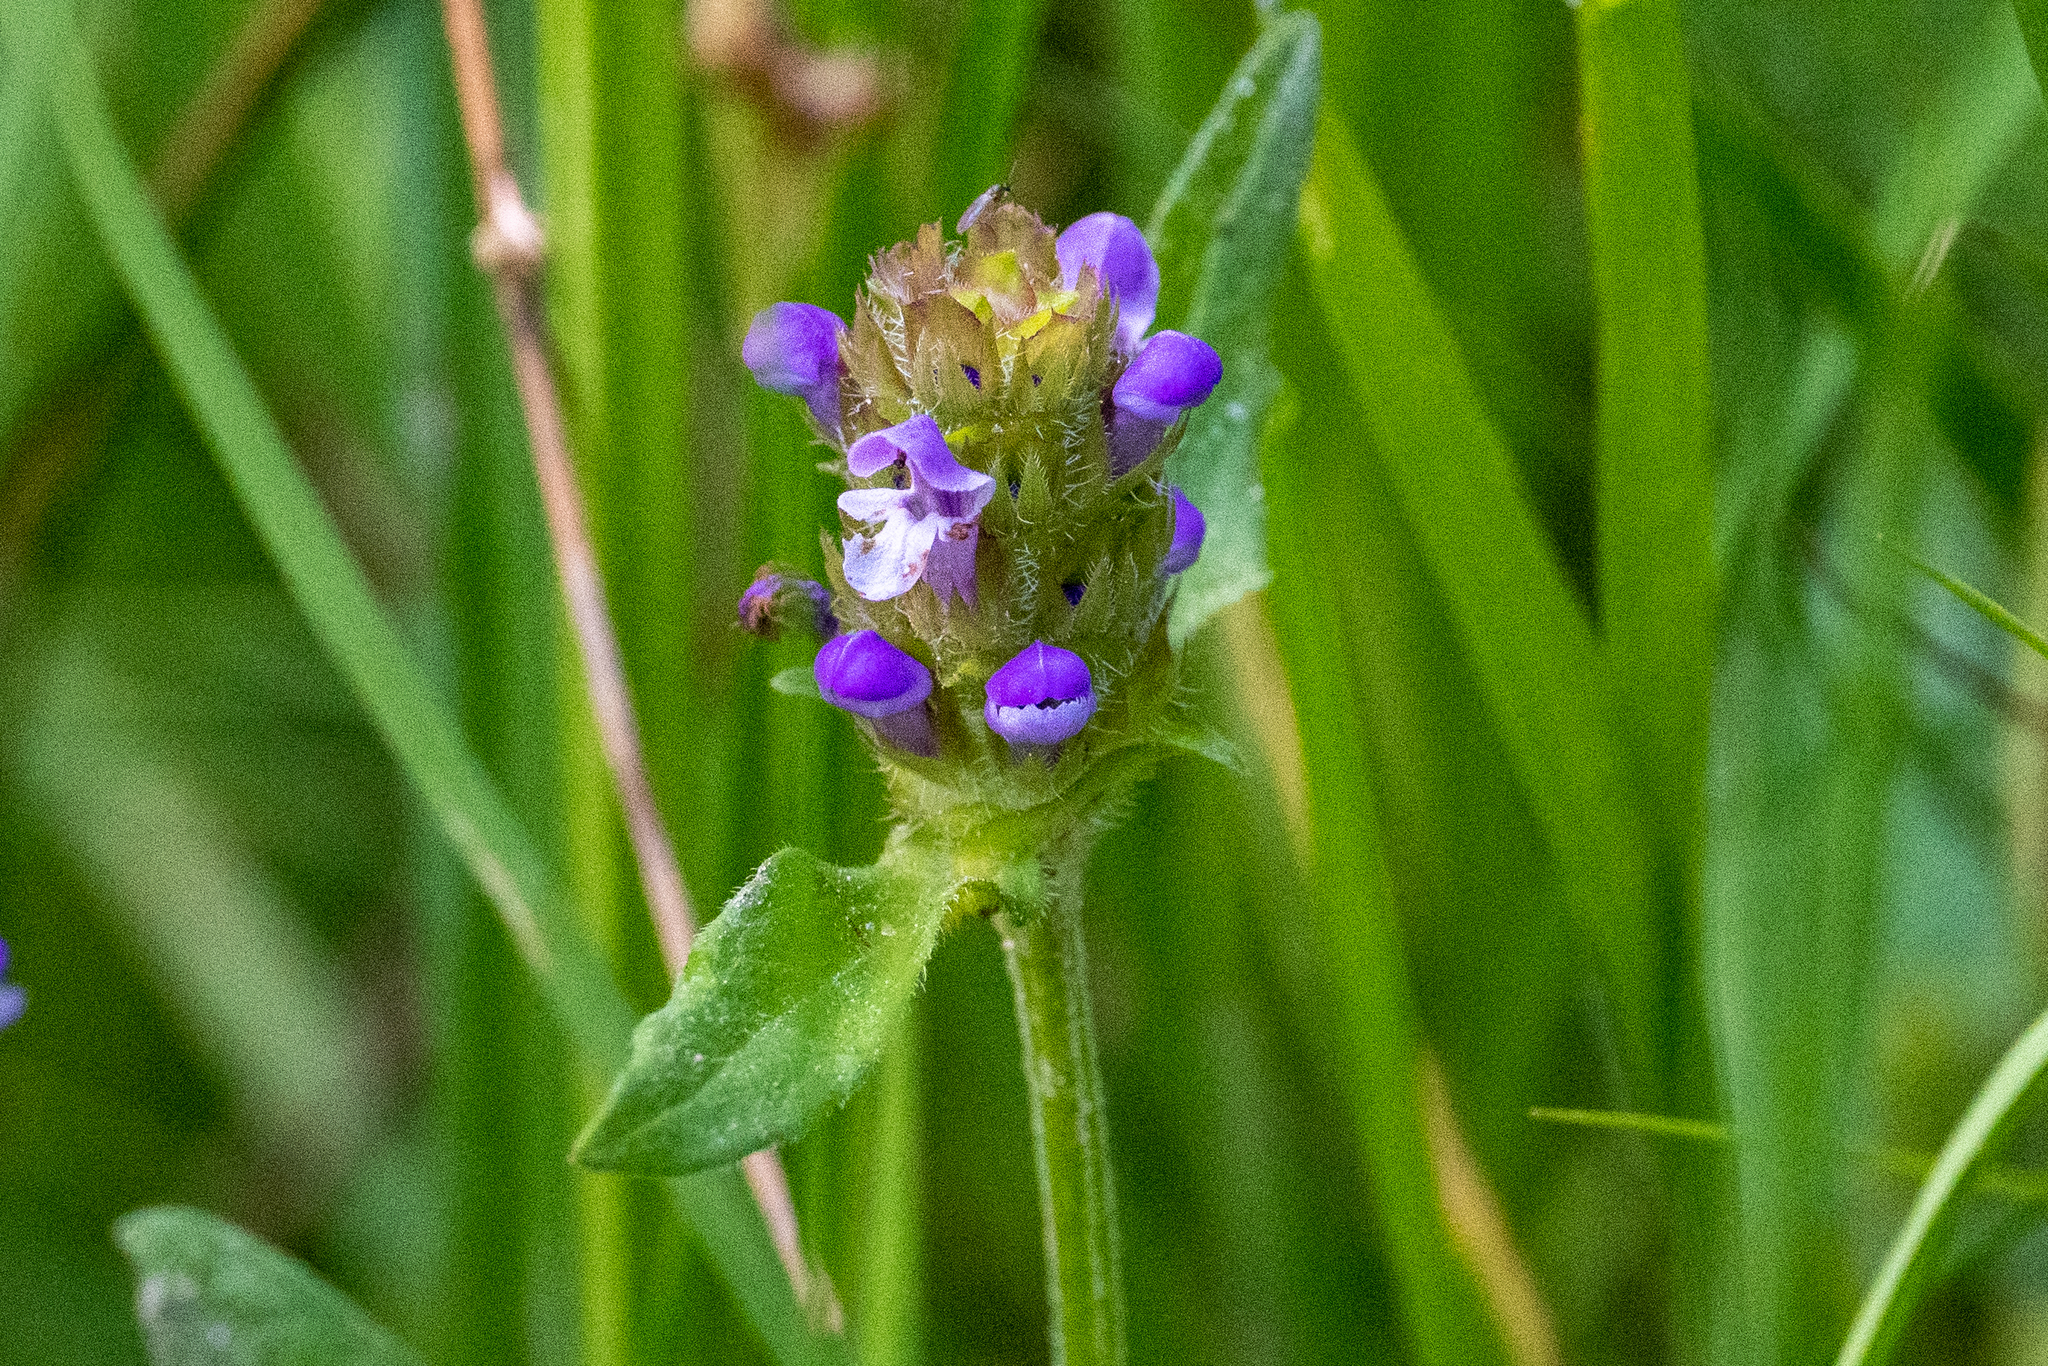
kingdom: Plantae
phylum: Tracheophyta
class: Magnoliopsida
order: Lamiales
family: Lamiaceae
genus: Prunella
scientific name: Prunella vulgaris
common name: Heal-all
